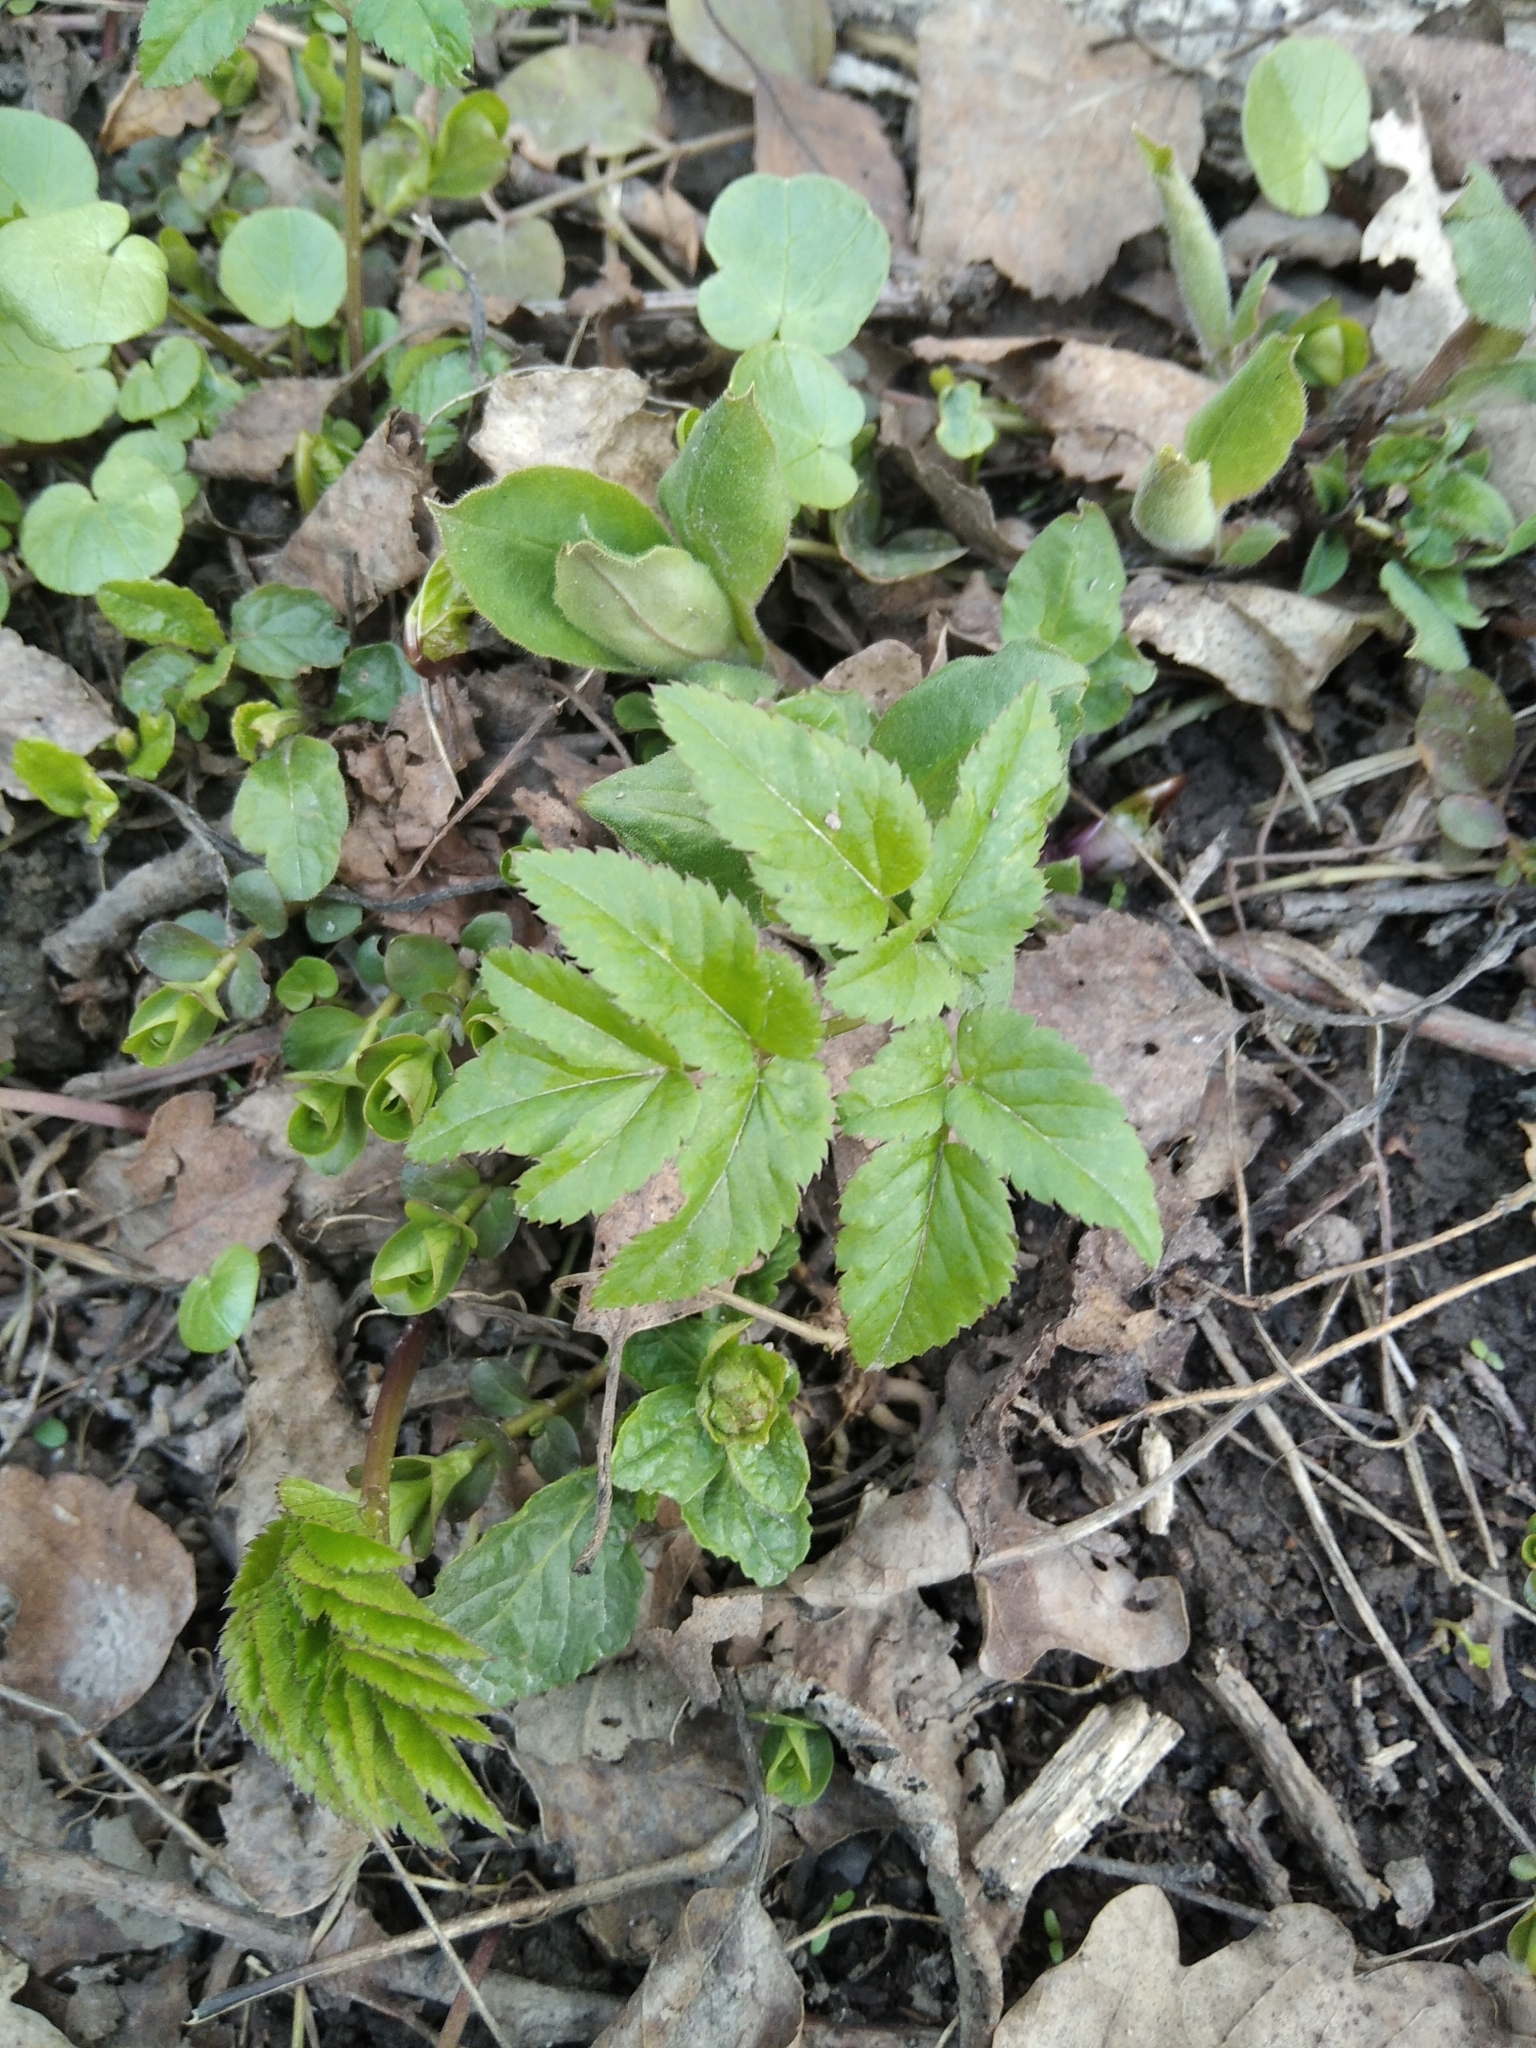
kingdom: Plantae
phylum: Tracheophyta
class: Magnoliopsida
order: Apiales
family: Apiaceae
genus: Aegopodium
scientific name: Aegopodium podagraria
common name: Ground-elder
